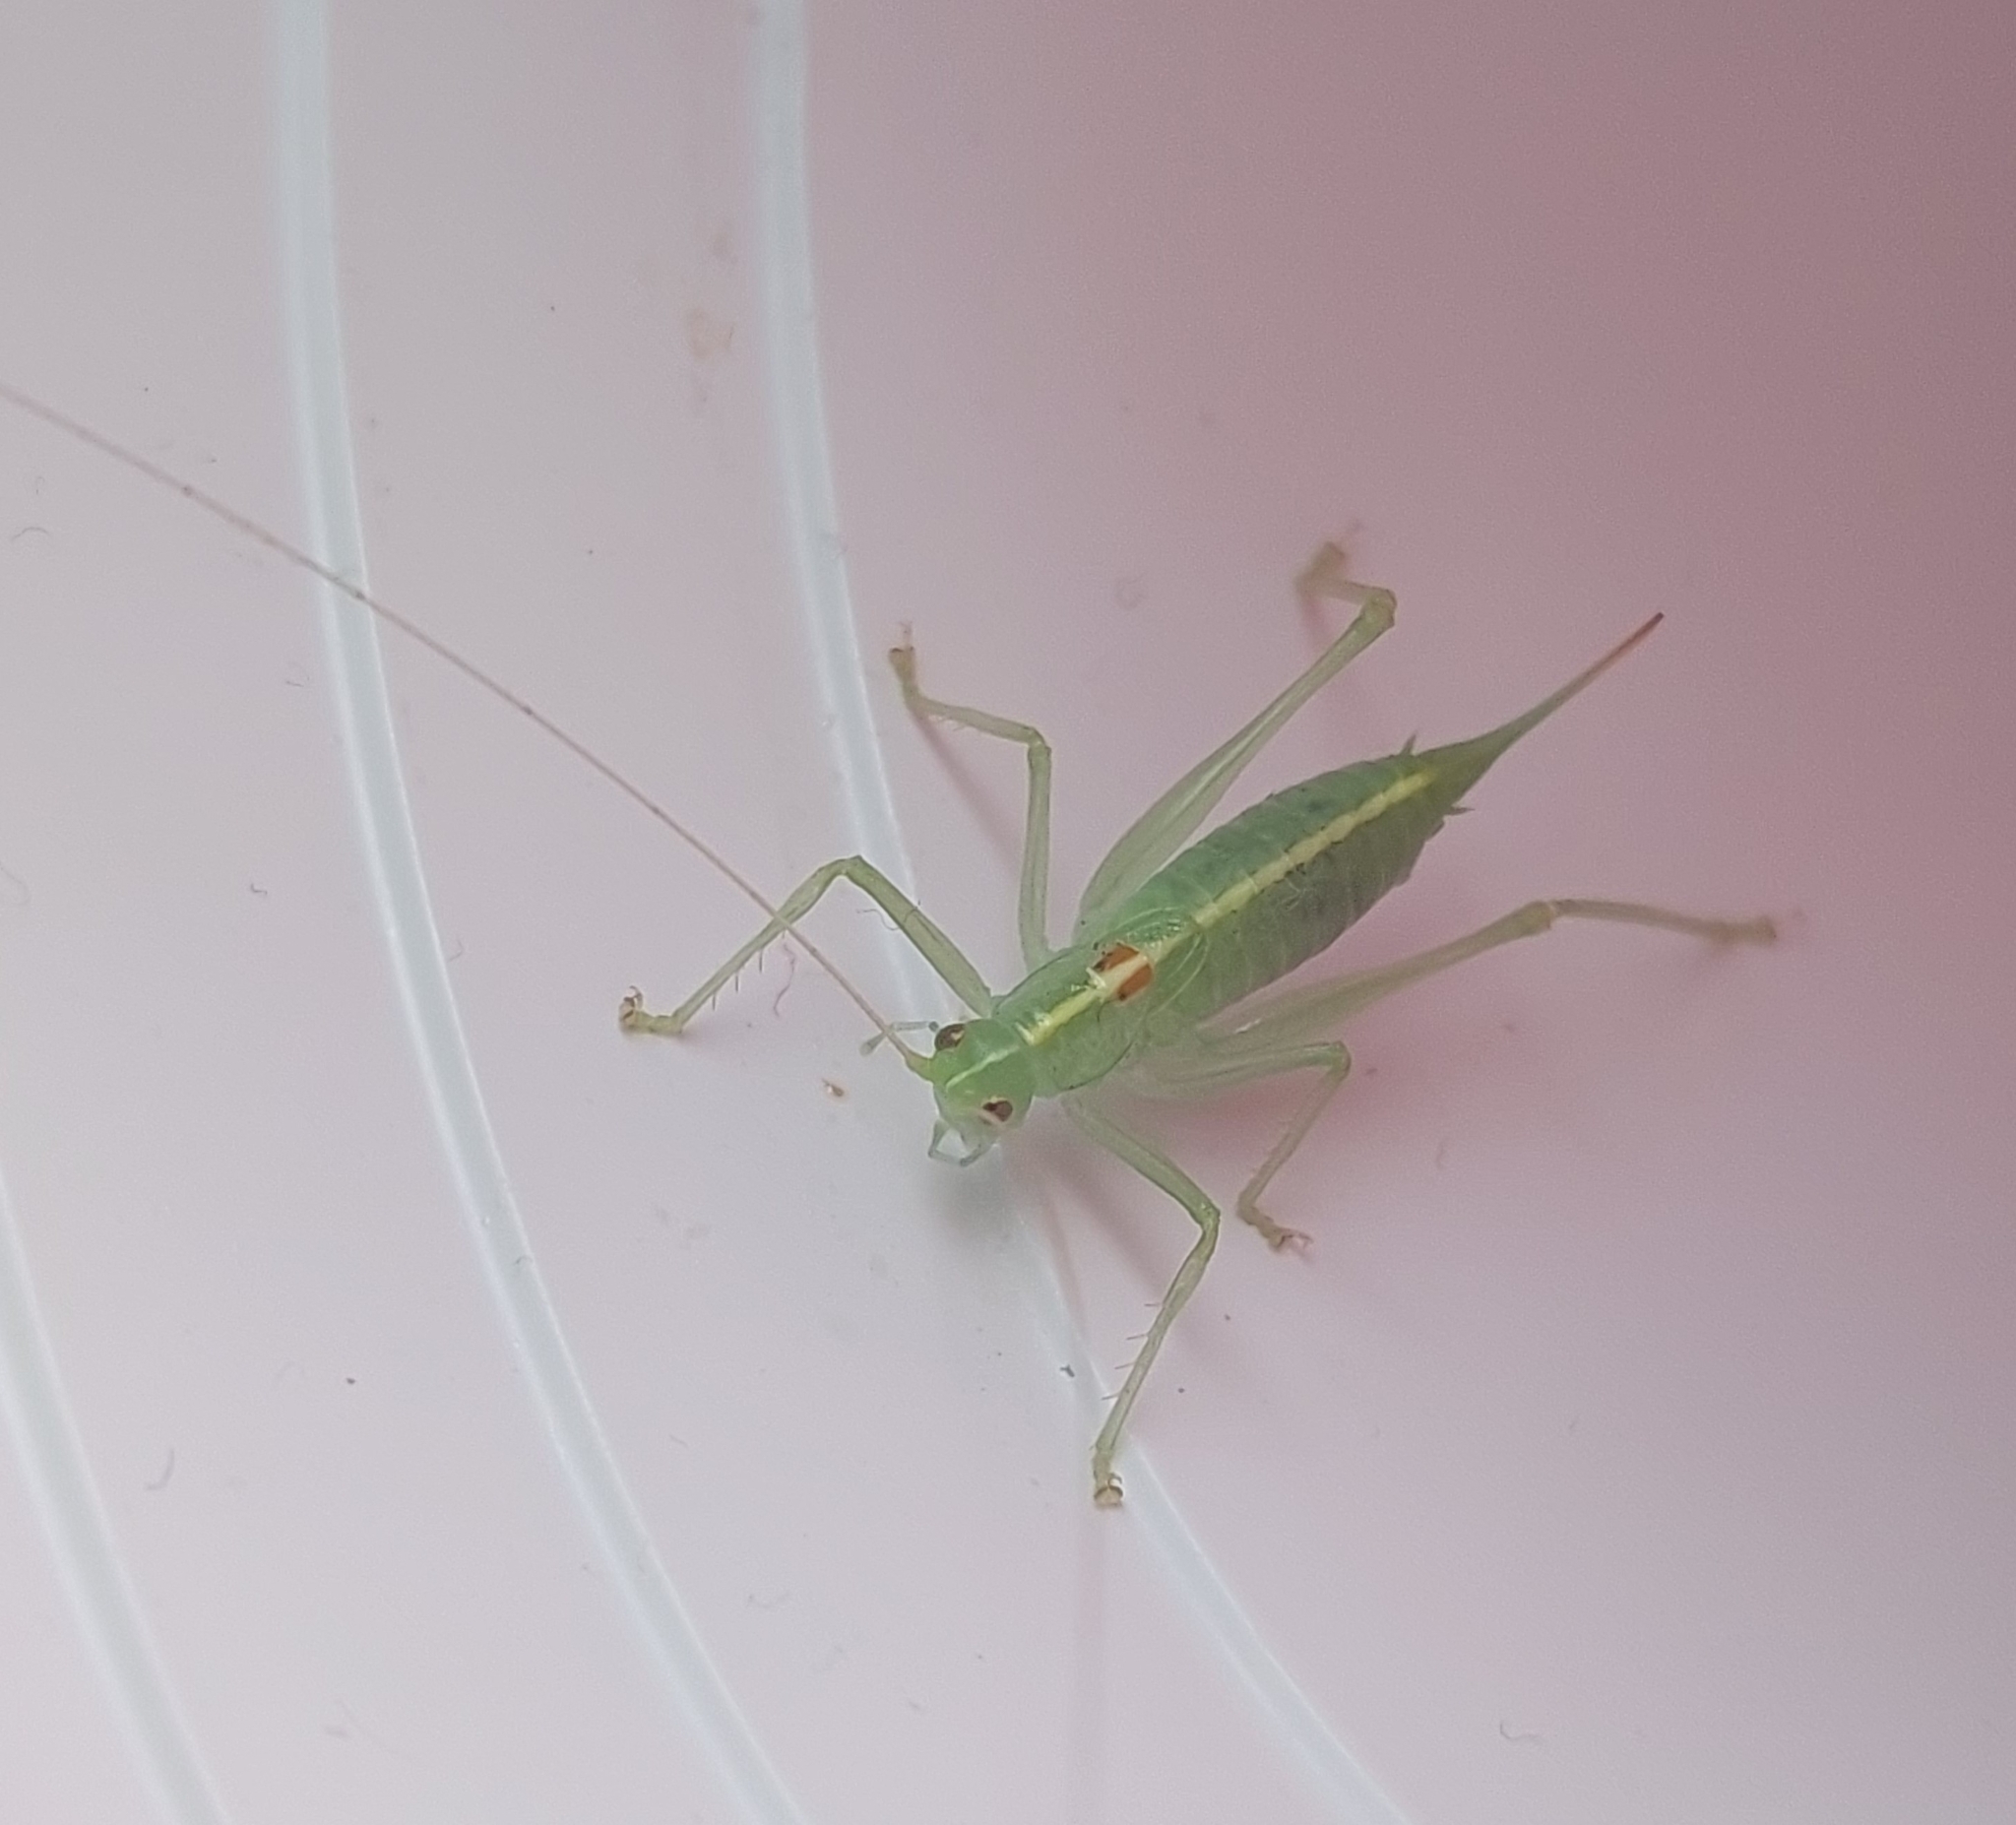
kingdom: Animalia
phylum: Arthropoda
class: Insecta
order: Orthoptera
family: Tettigoniidae
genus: Meconema
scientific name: Meconema meridionale
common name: Southern oak bush-cricket
